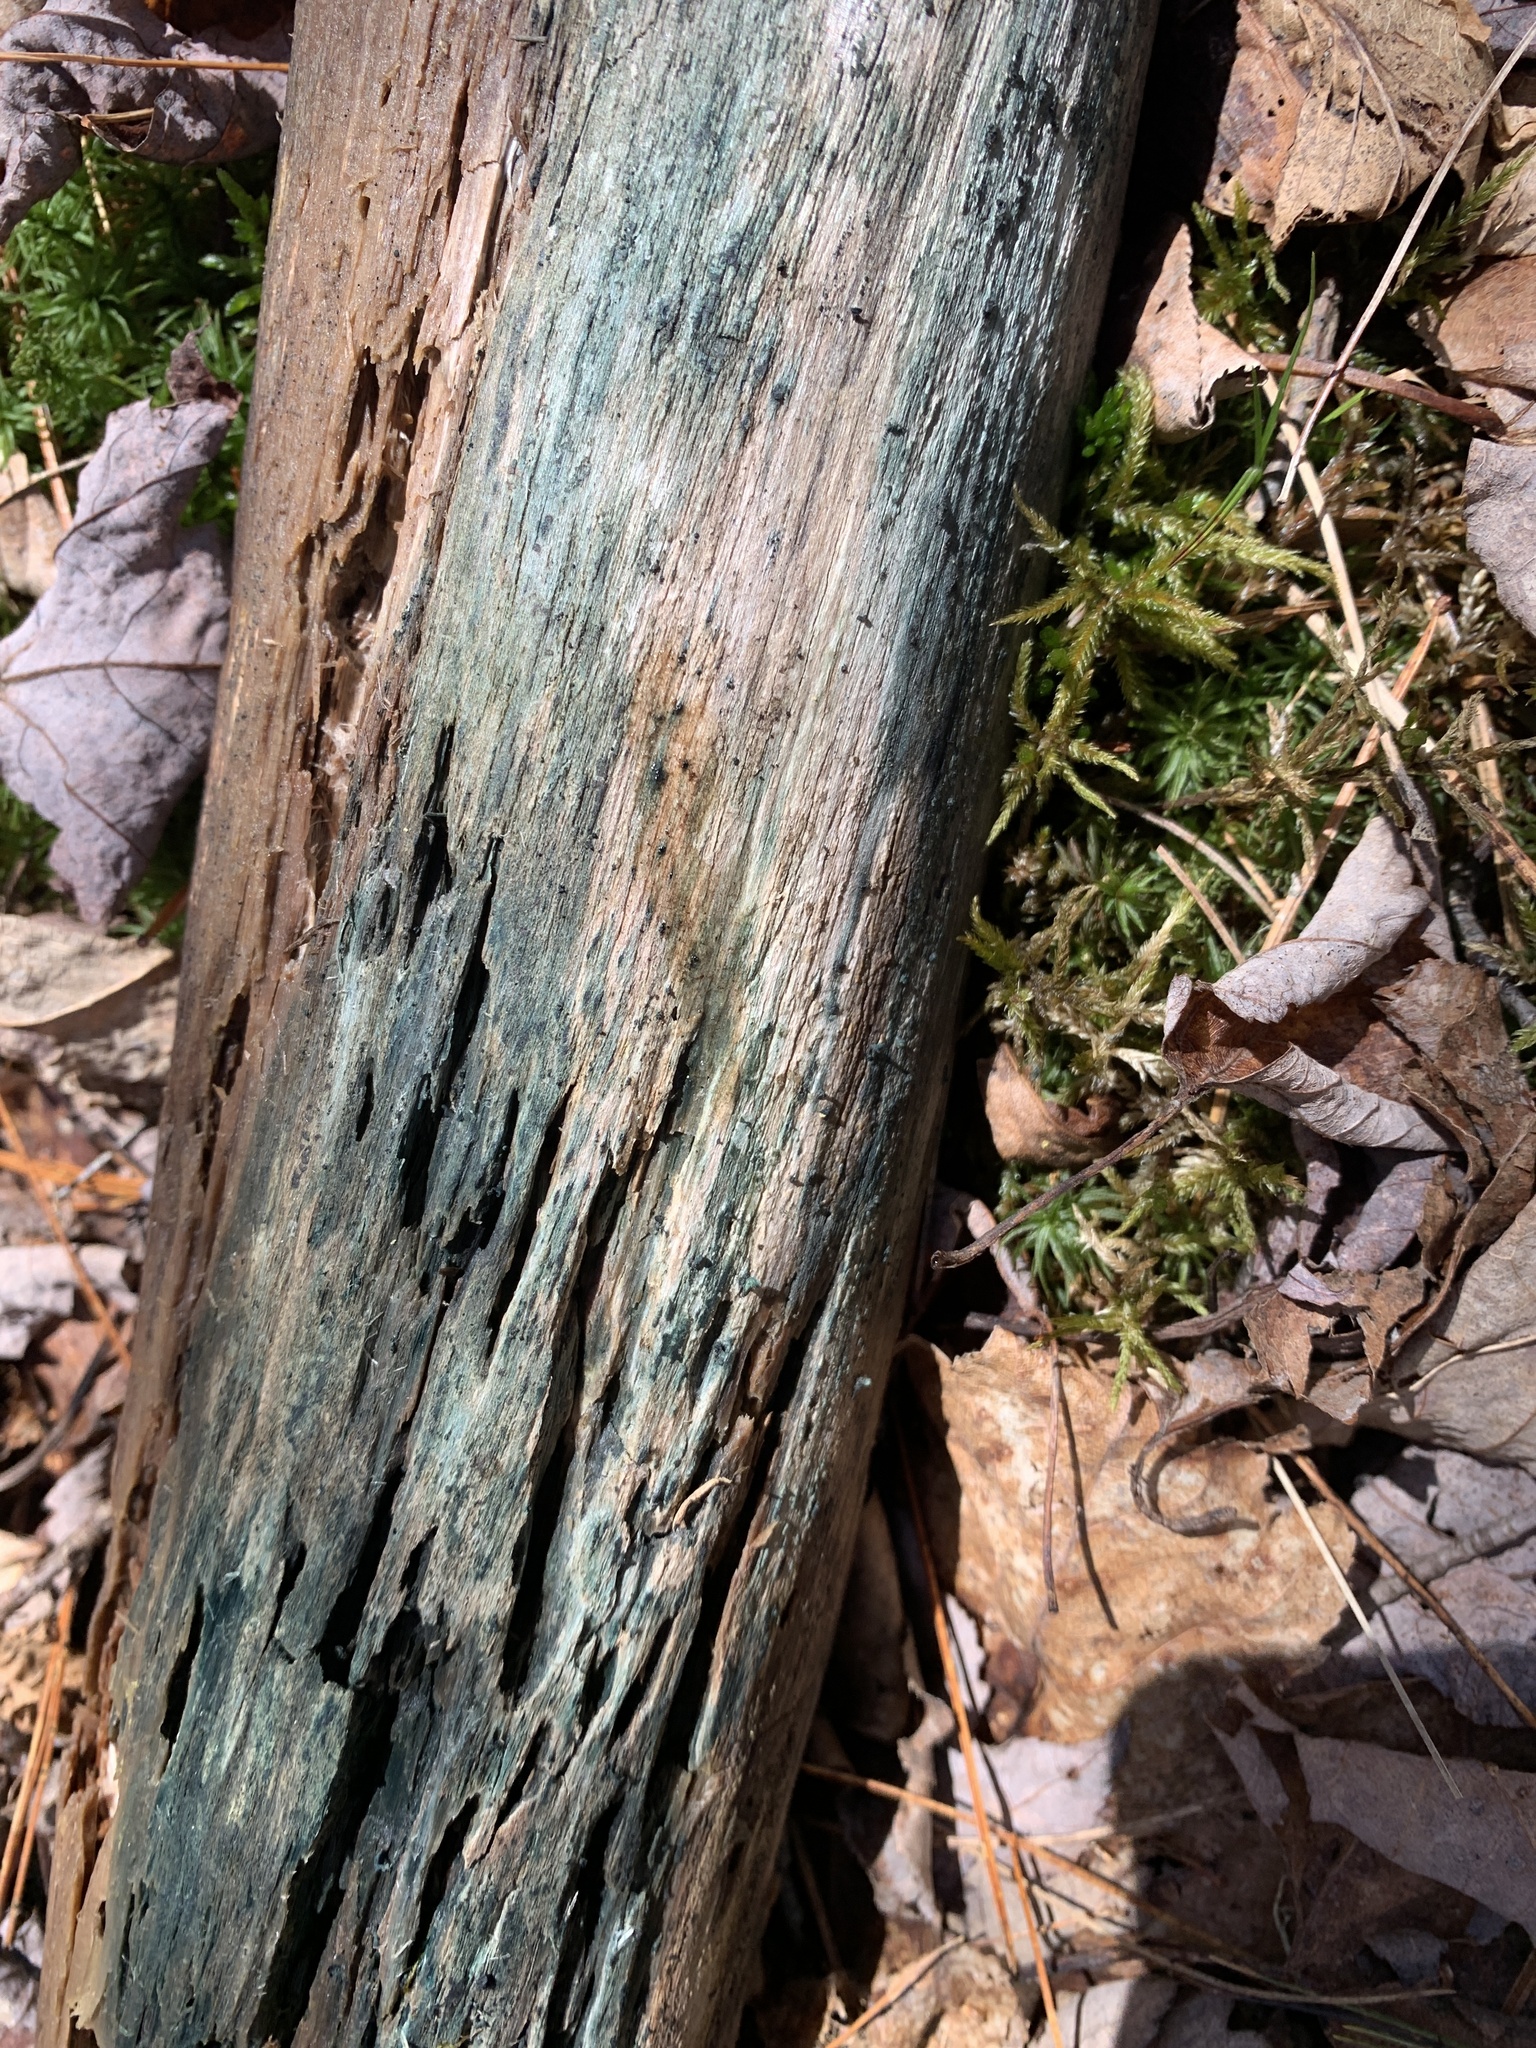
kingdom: Fungi
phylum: Ascomycota
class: Leotiomycetes
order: Helotiales
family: Chlorociboriaceae
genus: Chlorociboria
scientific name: Chlorociboria
